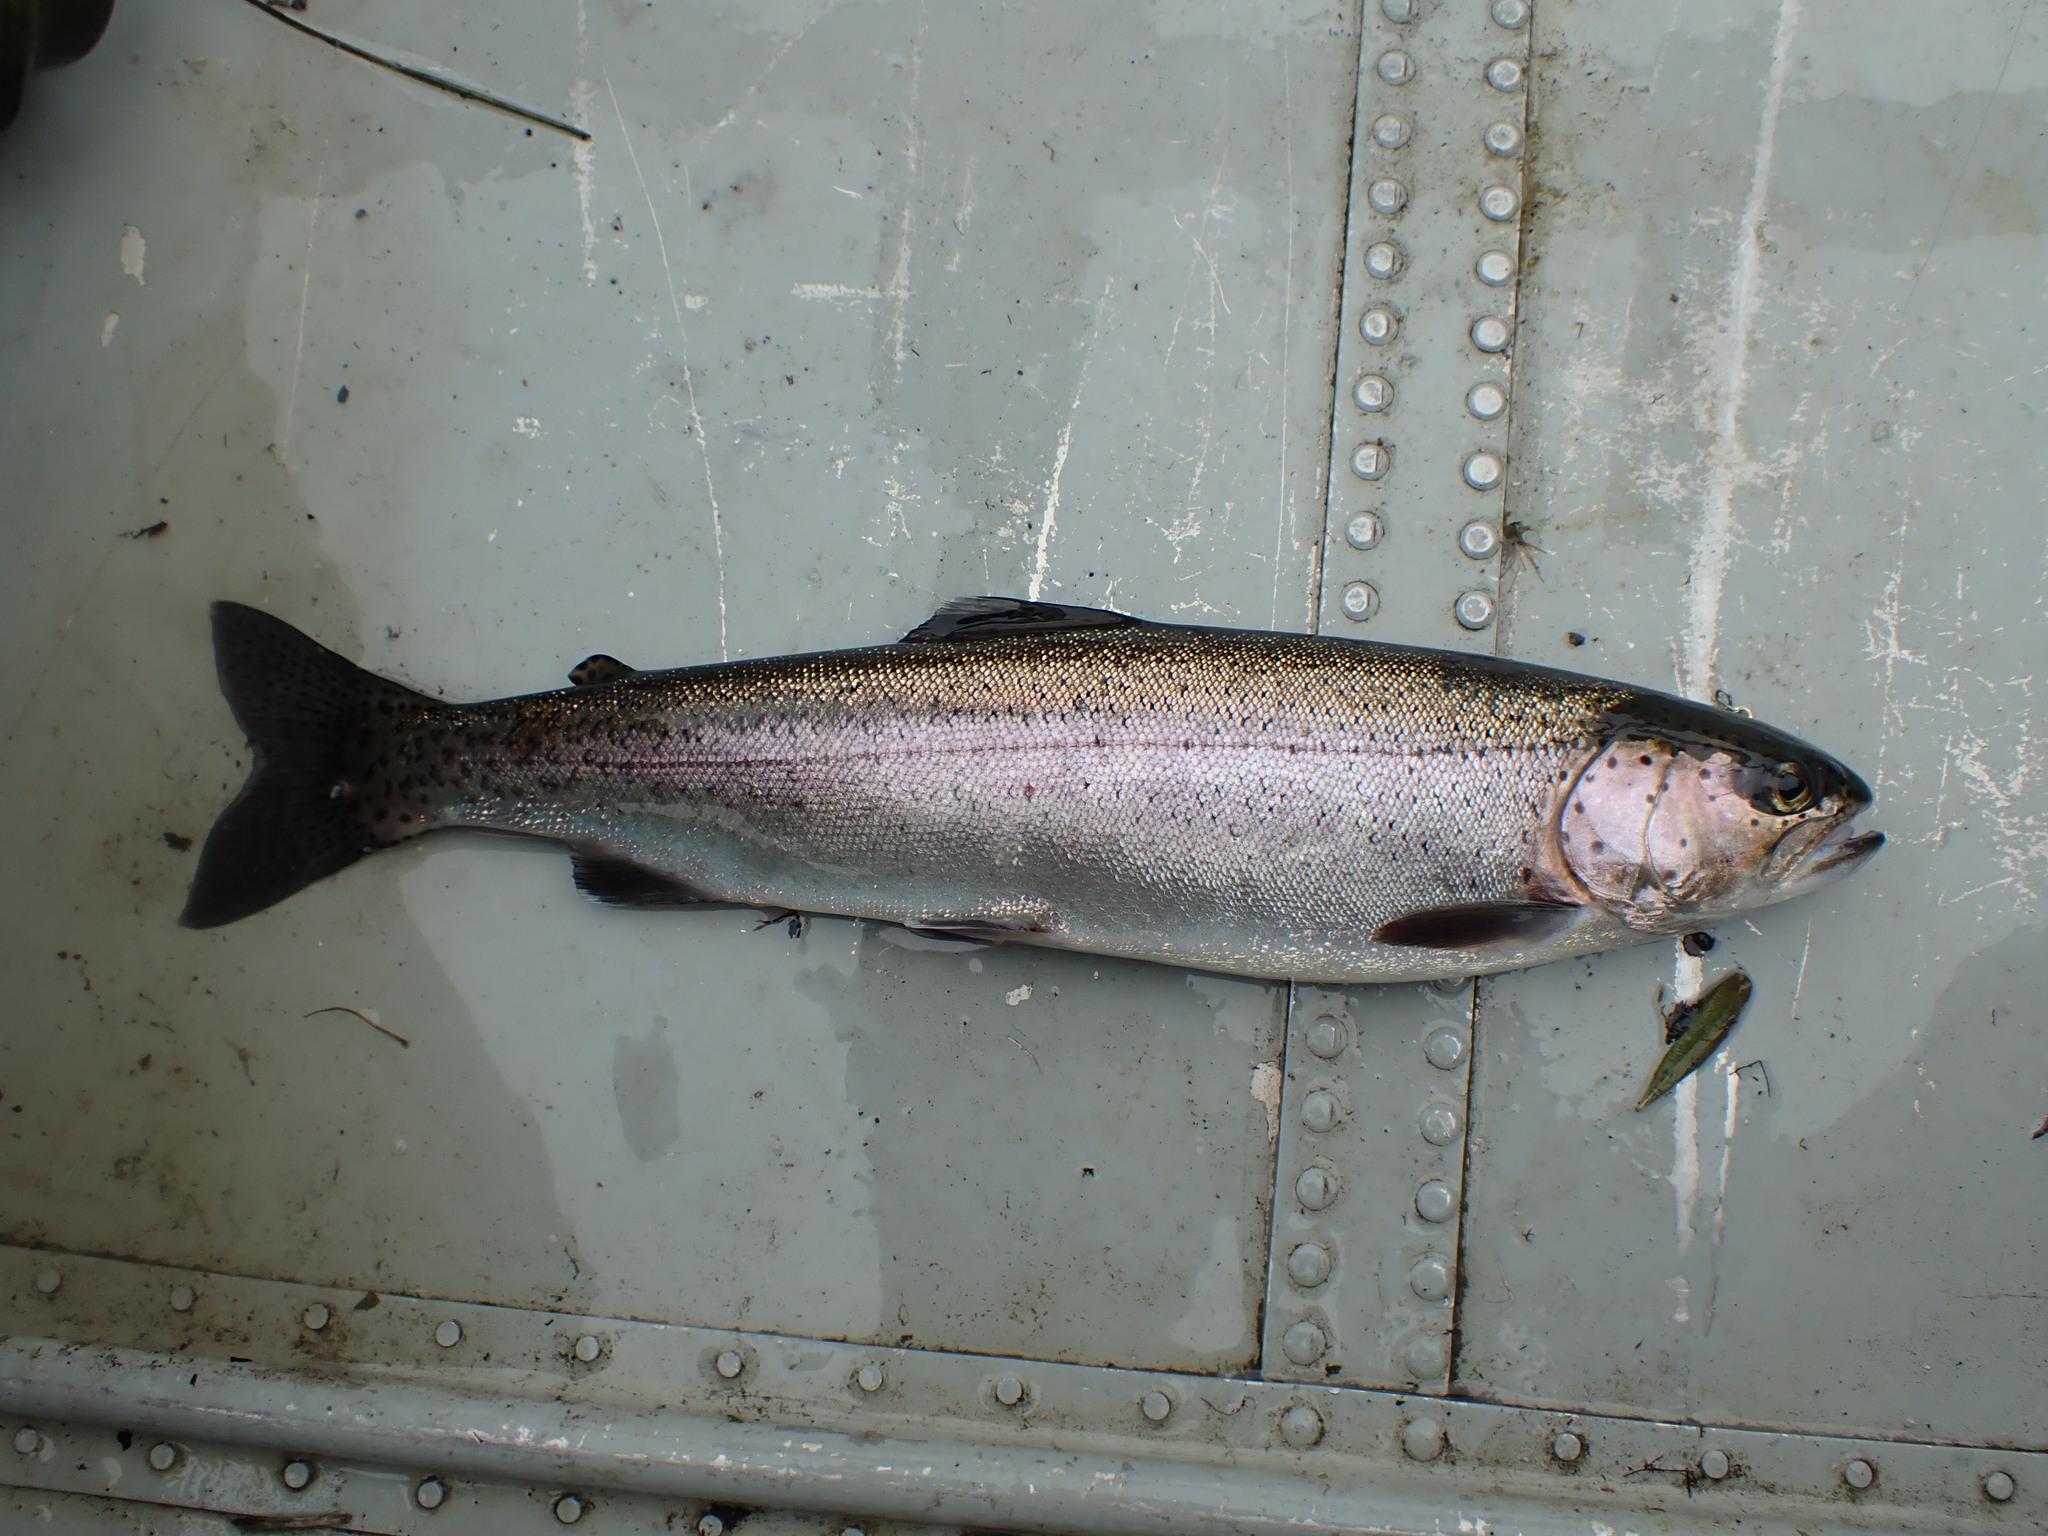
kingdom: Animalia
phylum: Chordata
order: Salmoniformes
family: Salmonidae
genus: Oncorhynchus
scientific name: Oncorhynchus mykiss
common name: Rainbow trout
